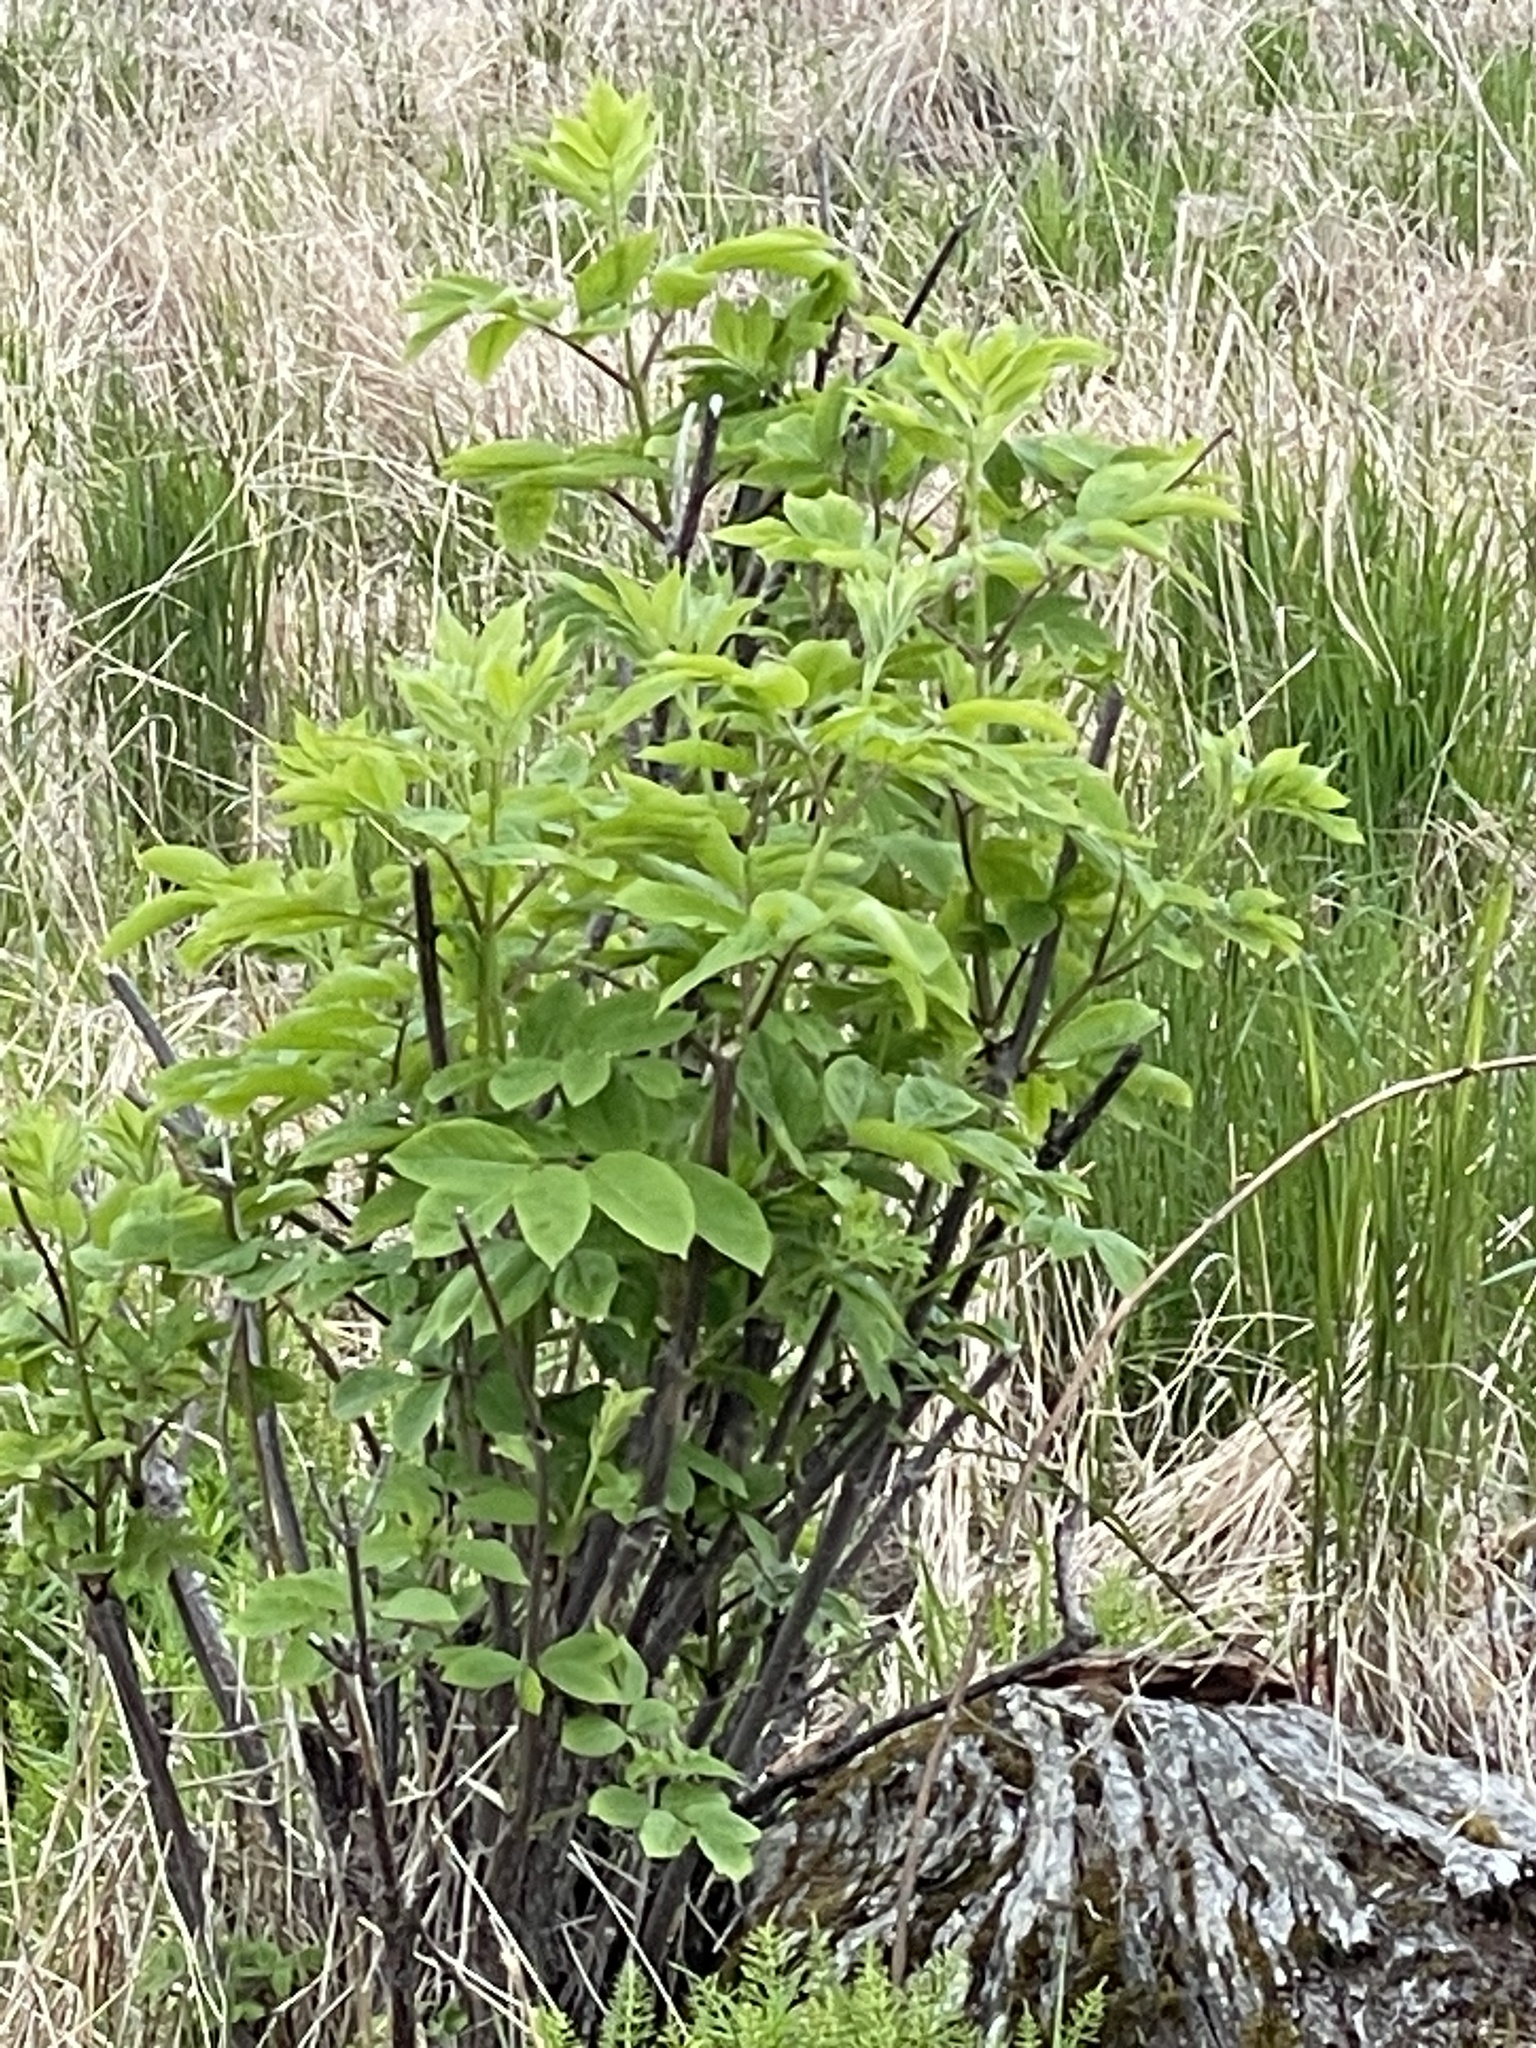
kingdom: Plantae
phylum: Tracheophyta
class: Magnoliopsida
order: Dipsacales
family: Viburnaceae
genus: Sambucus
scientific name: Sambucus racemosa
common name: Red-berried elder
